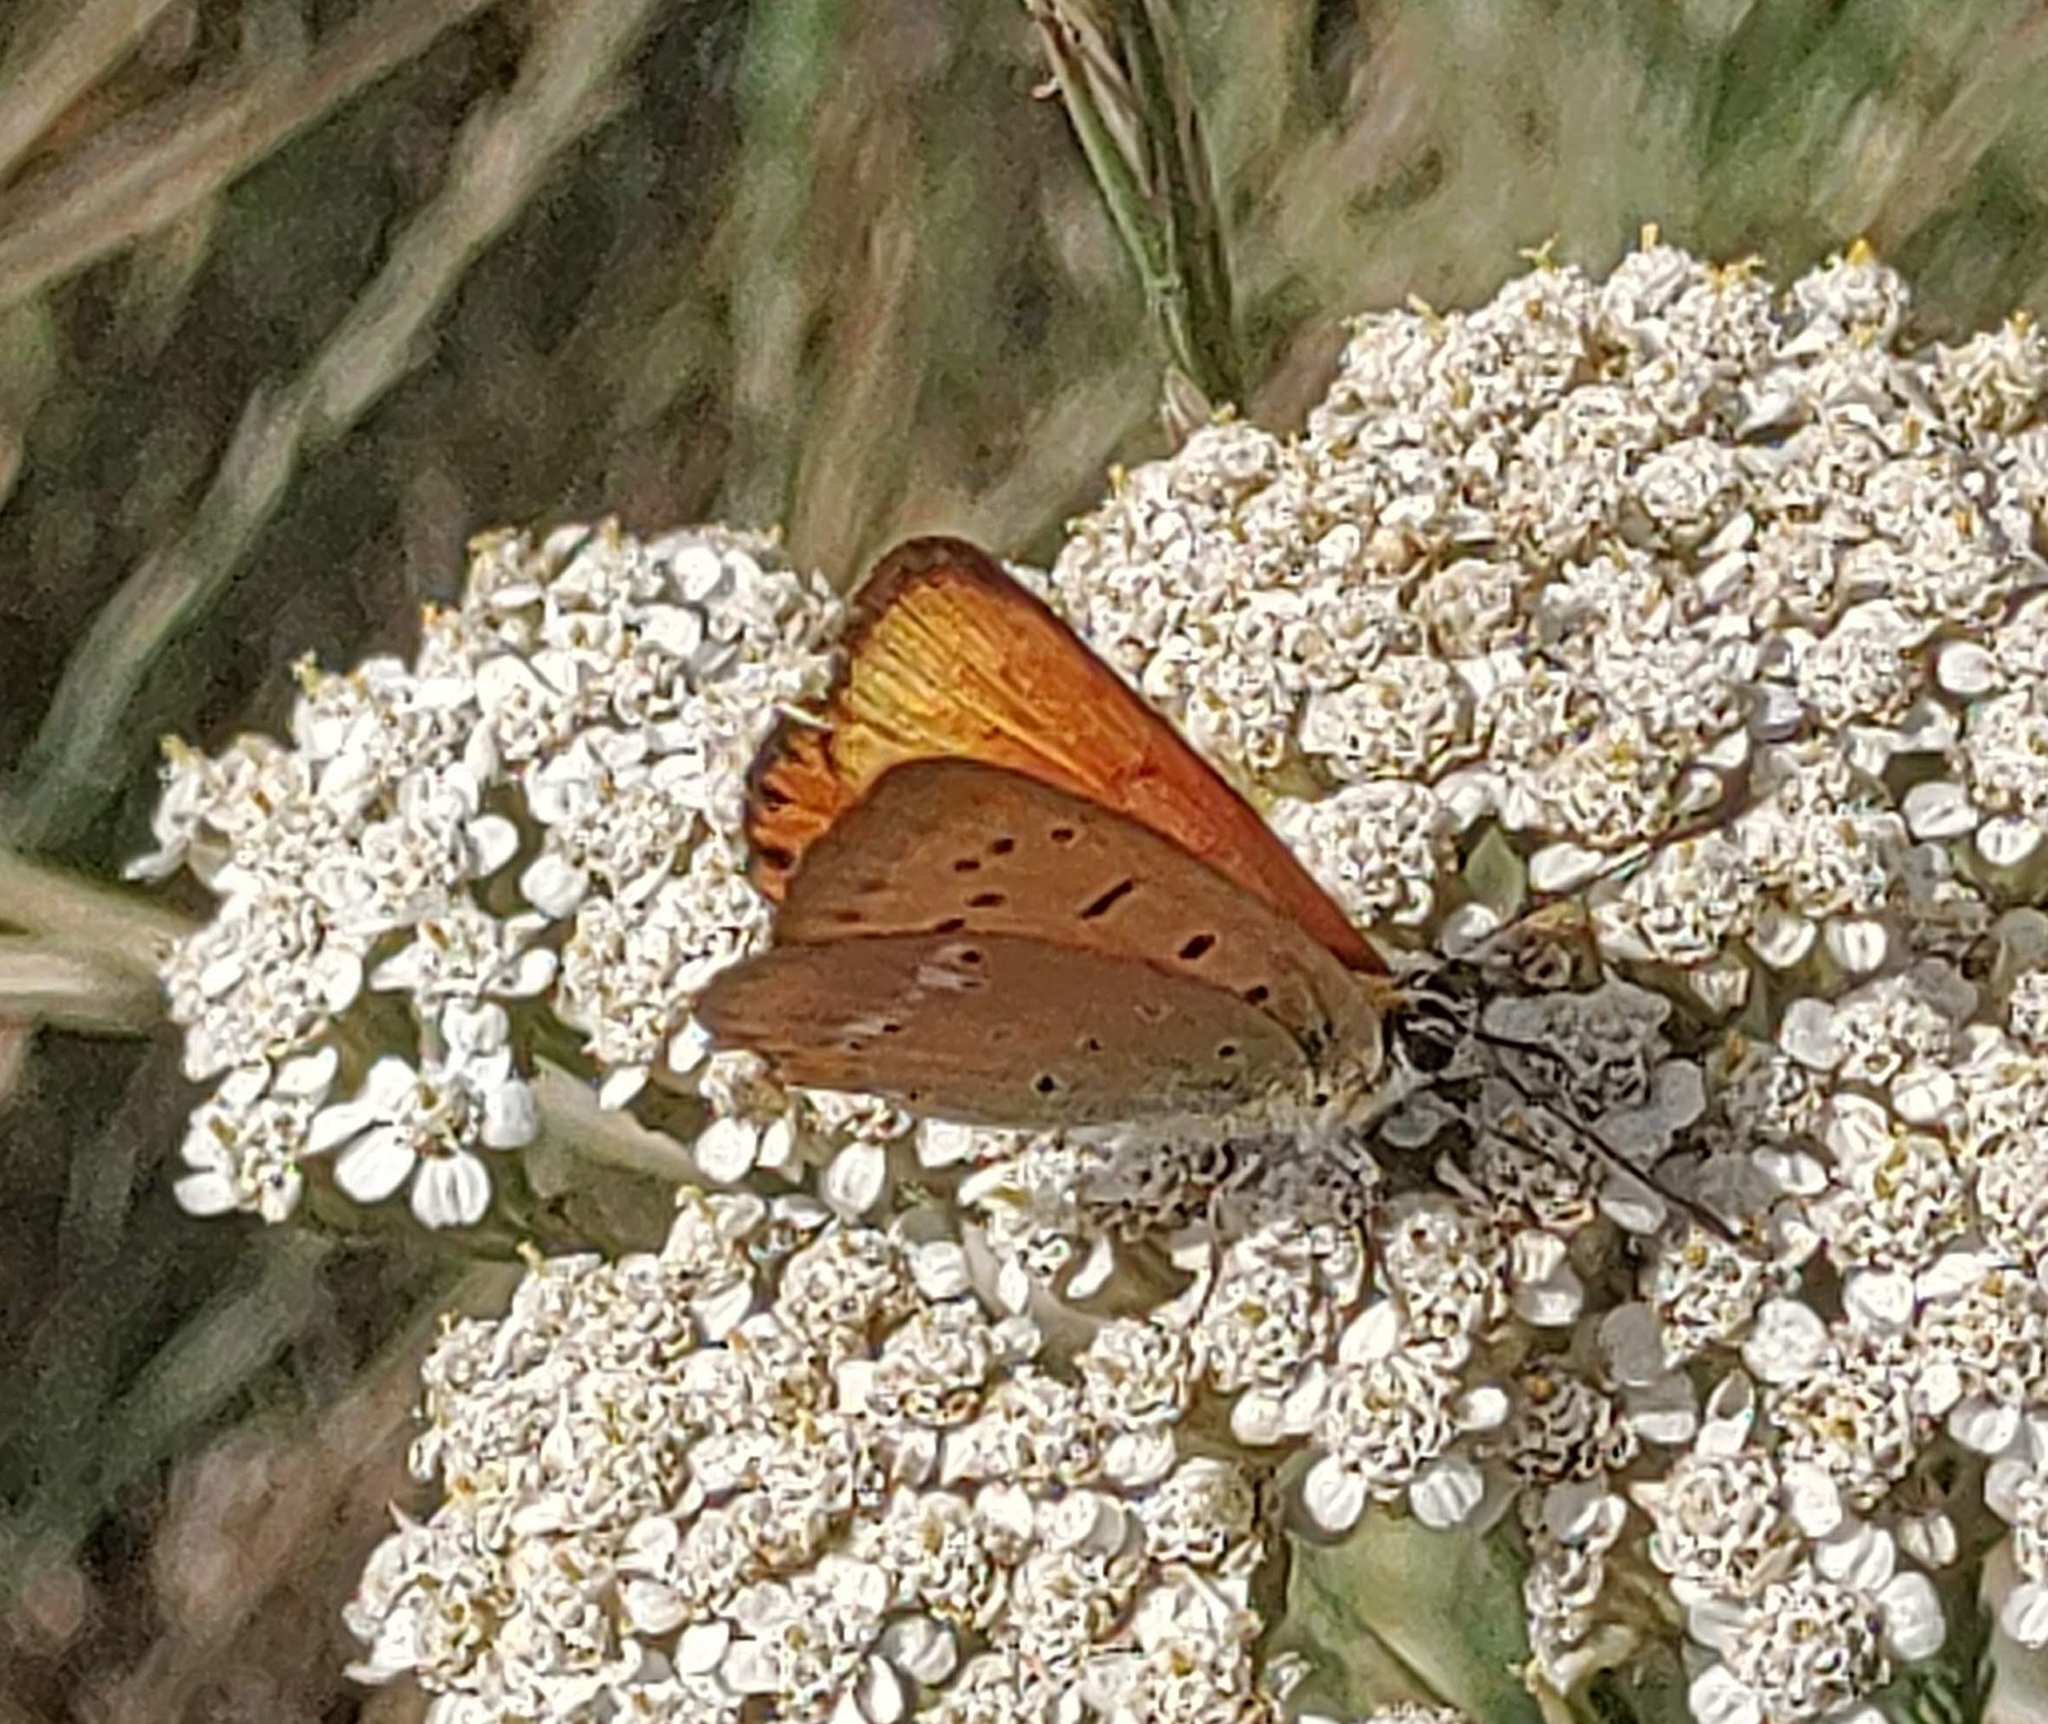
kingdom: Animalia
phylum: Arthropoda
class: Insecta
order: Lepidoptera
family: Lycaenidae
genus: Lycaena
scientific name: Lycaena virgaureae
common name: Scarce copper
